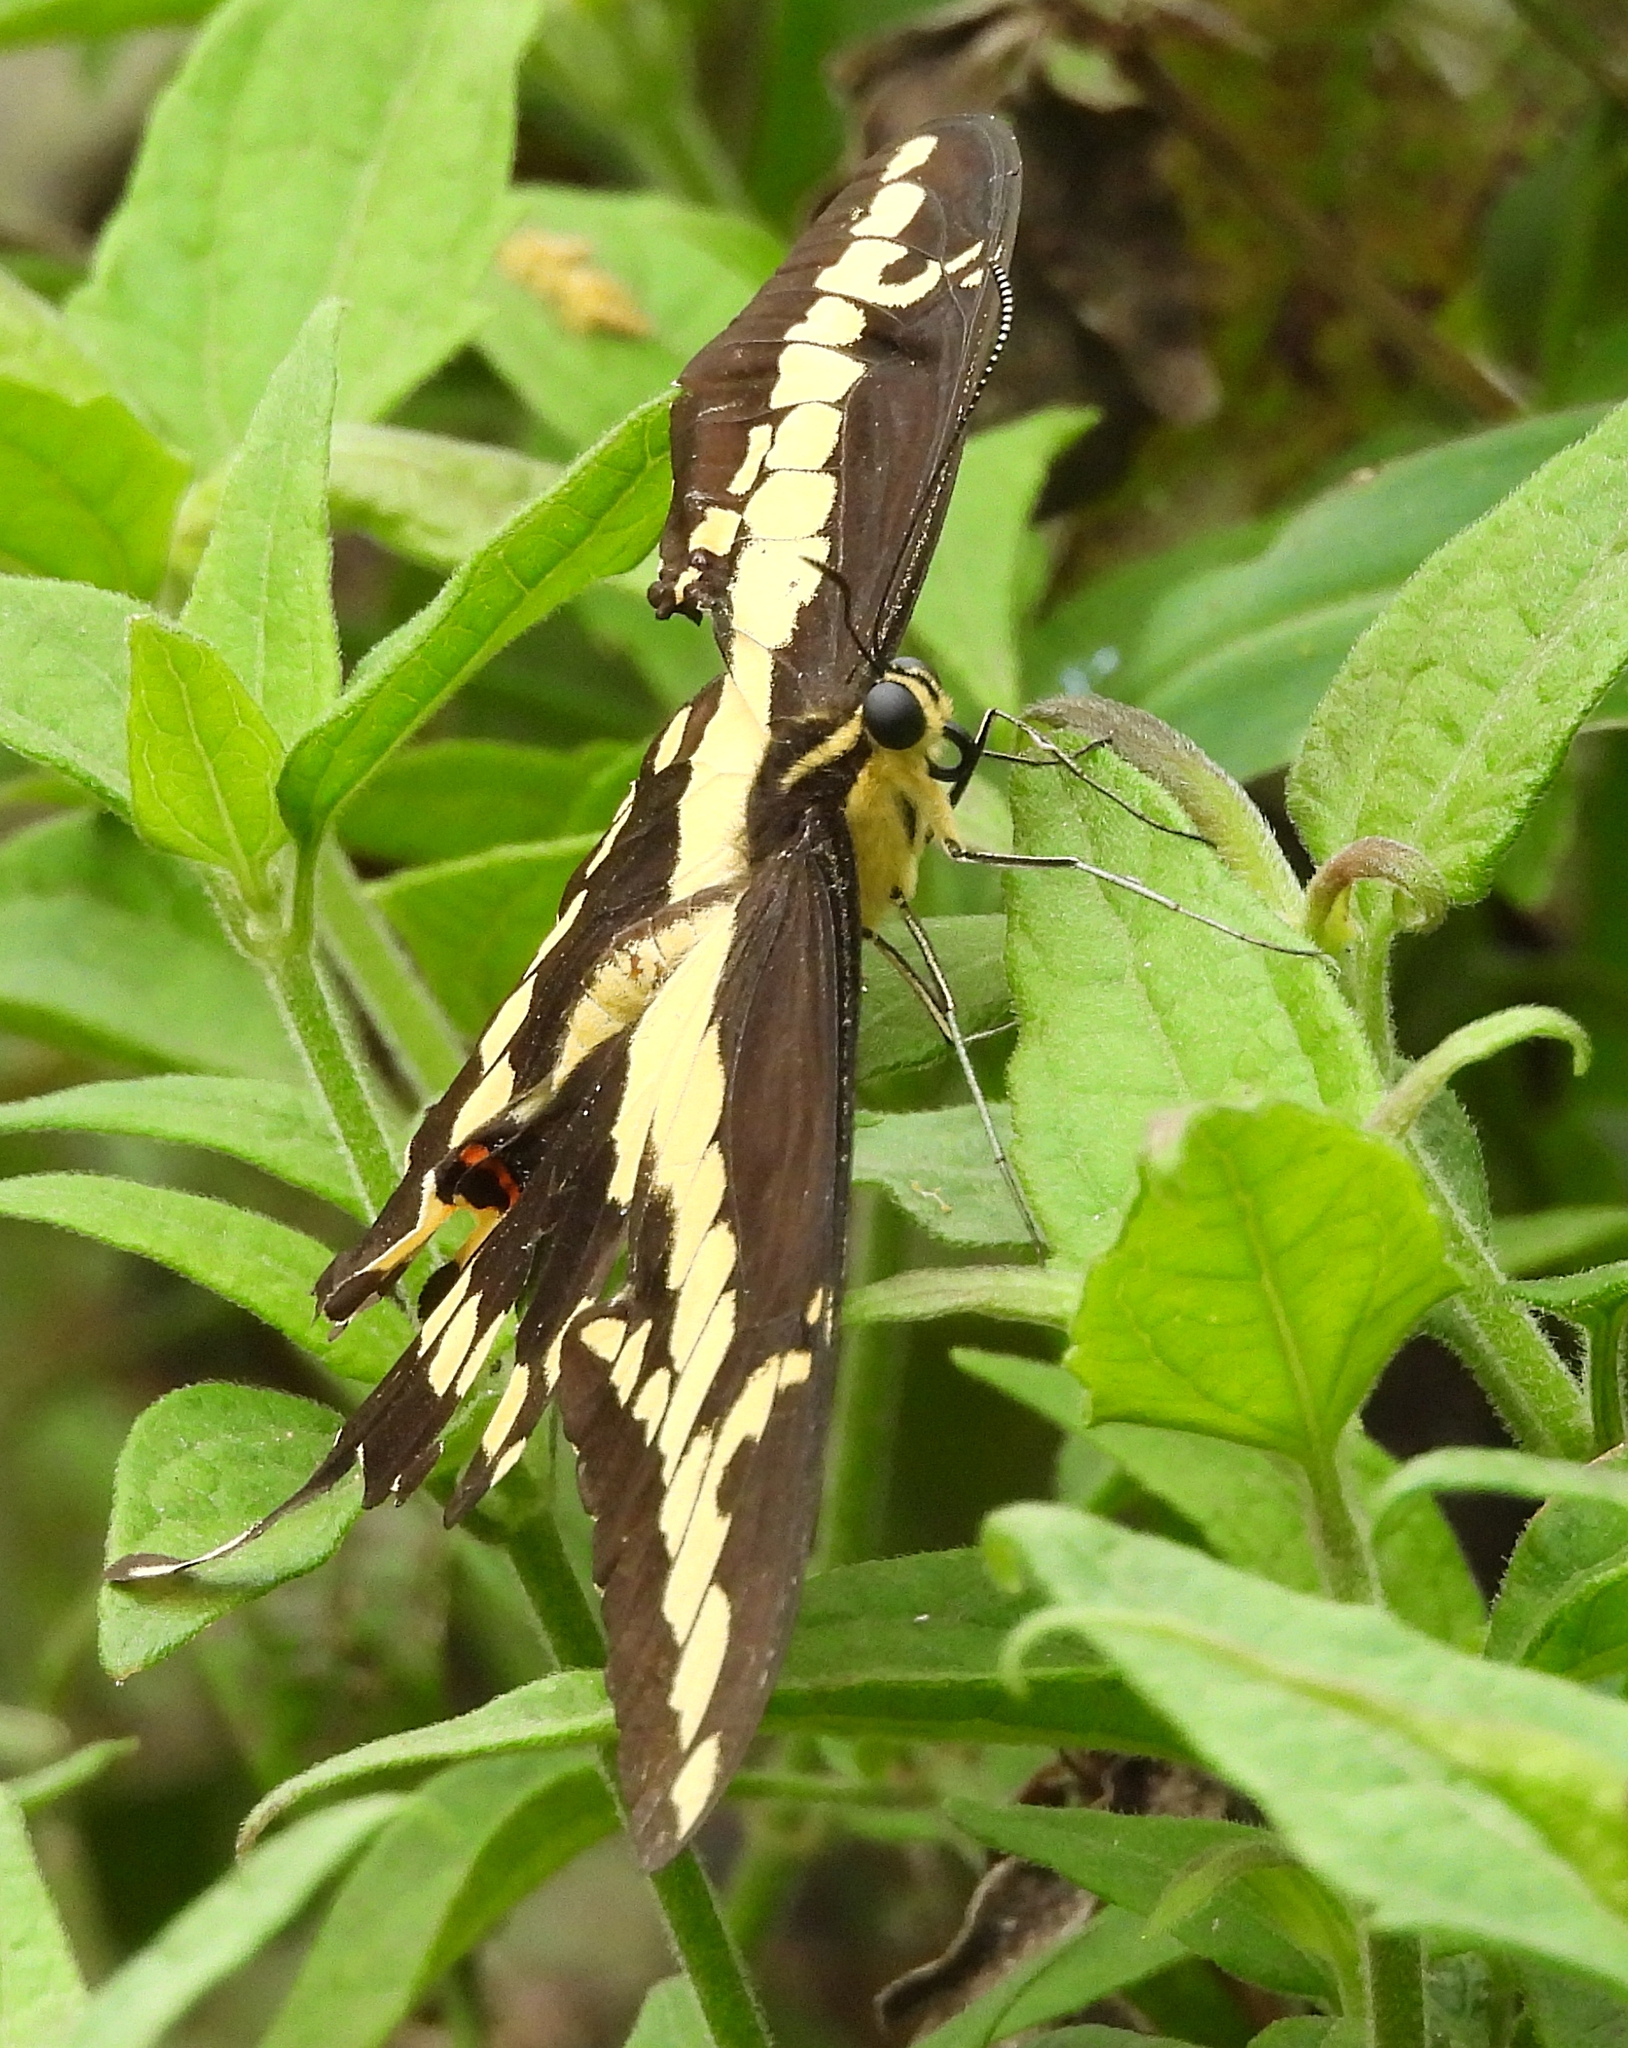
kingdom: Animalia
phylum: Arthropoda
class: Insecta
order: Lepidoptera
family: Papilionidae
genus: Papilio
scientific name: Papilio rumiko
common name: Western giant swallowtail
